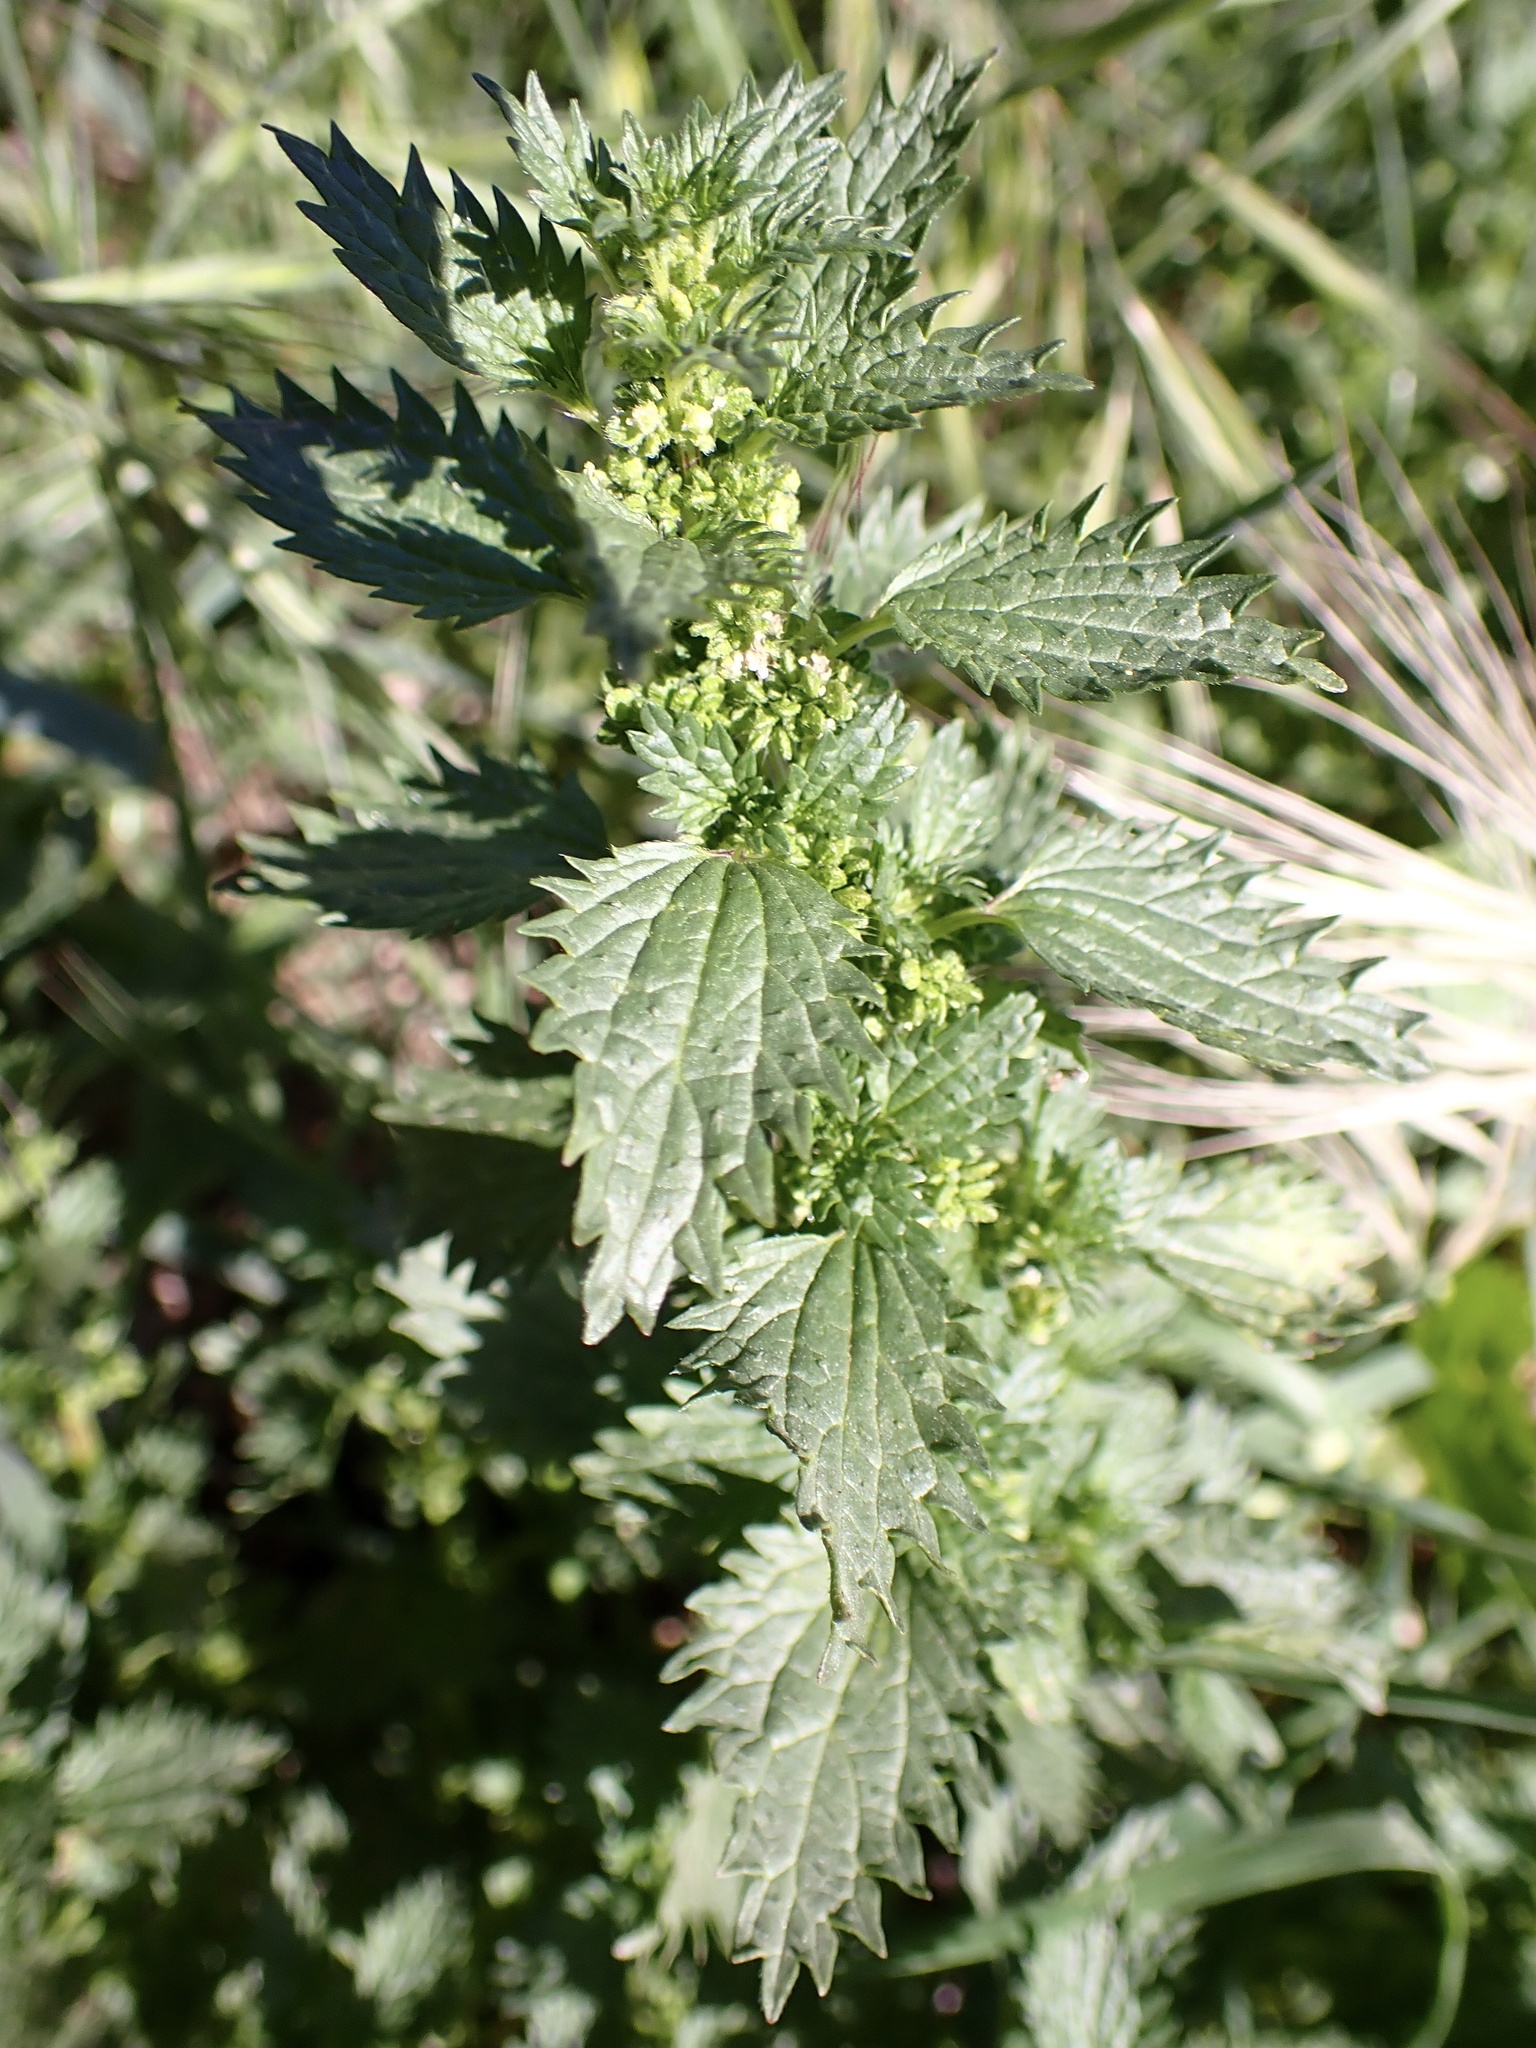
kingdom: Plantae
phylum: Tracheophyta
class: Magnoliopsida
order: Rosales
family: Urticaceae
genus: Urtica
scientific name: Urtica urens
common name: Dwarf nettle
